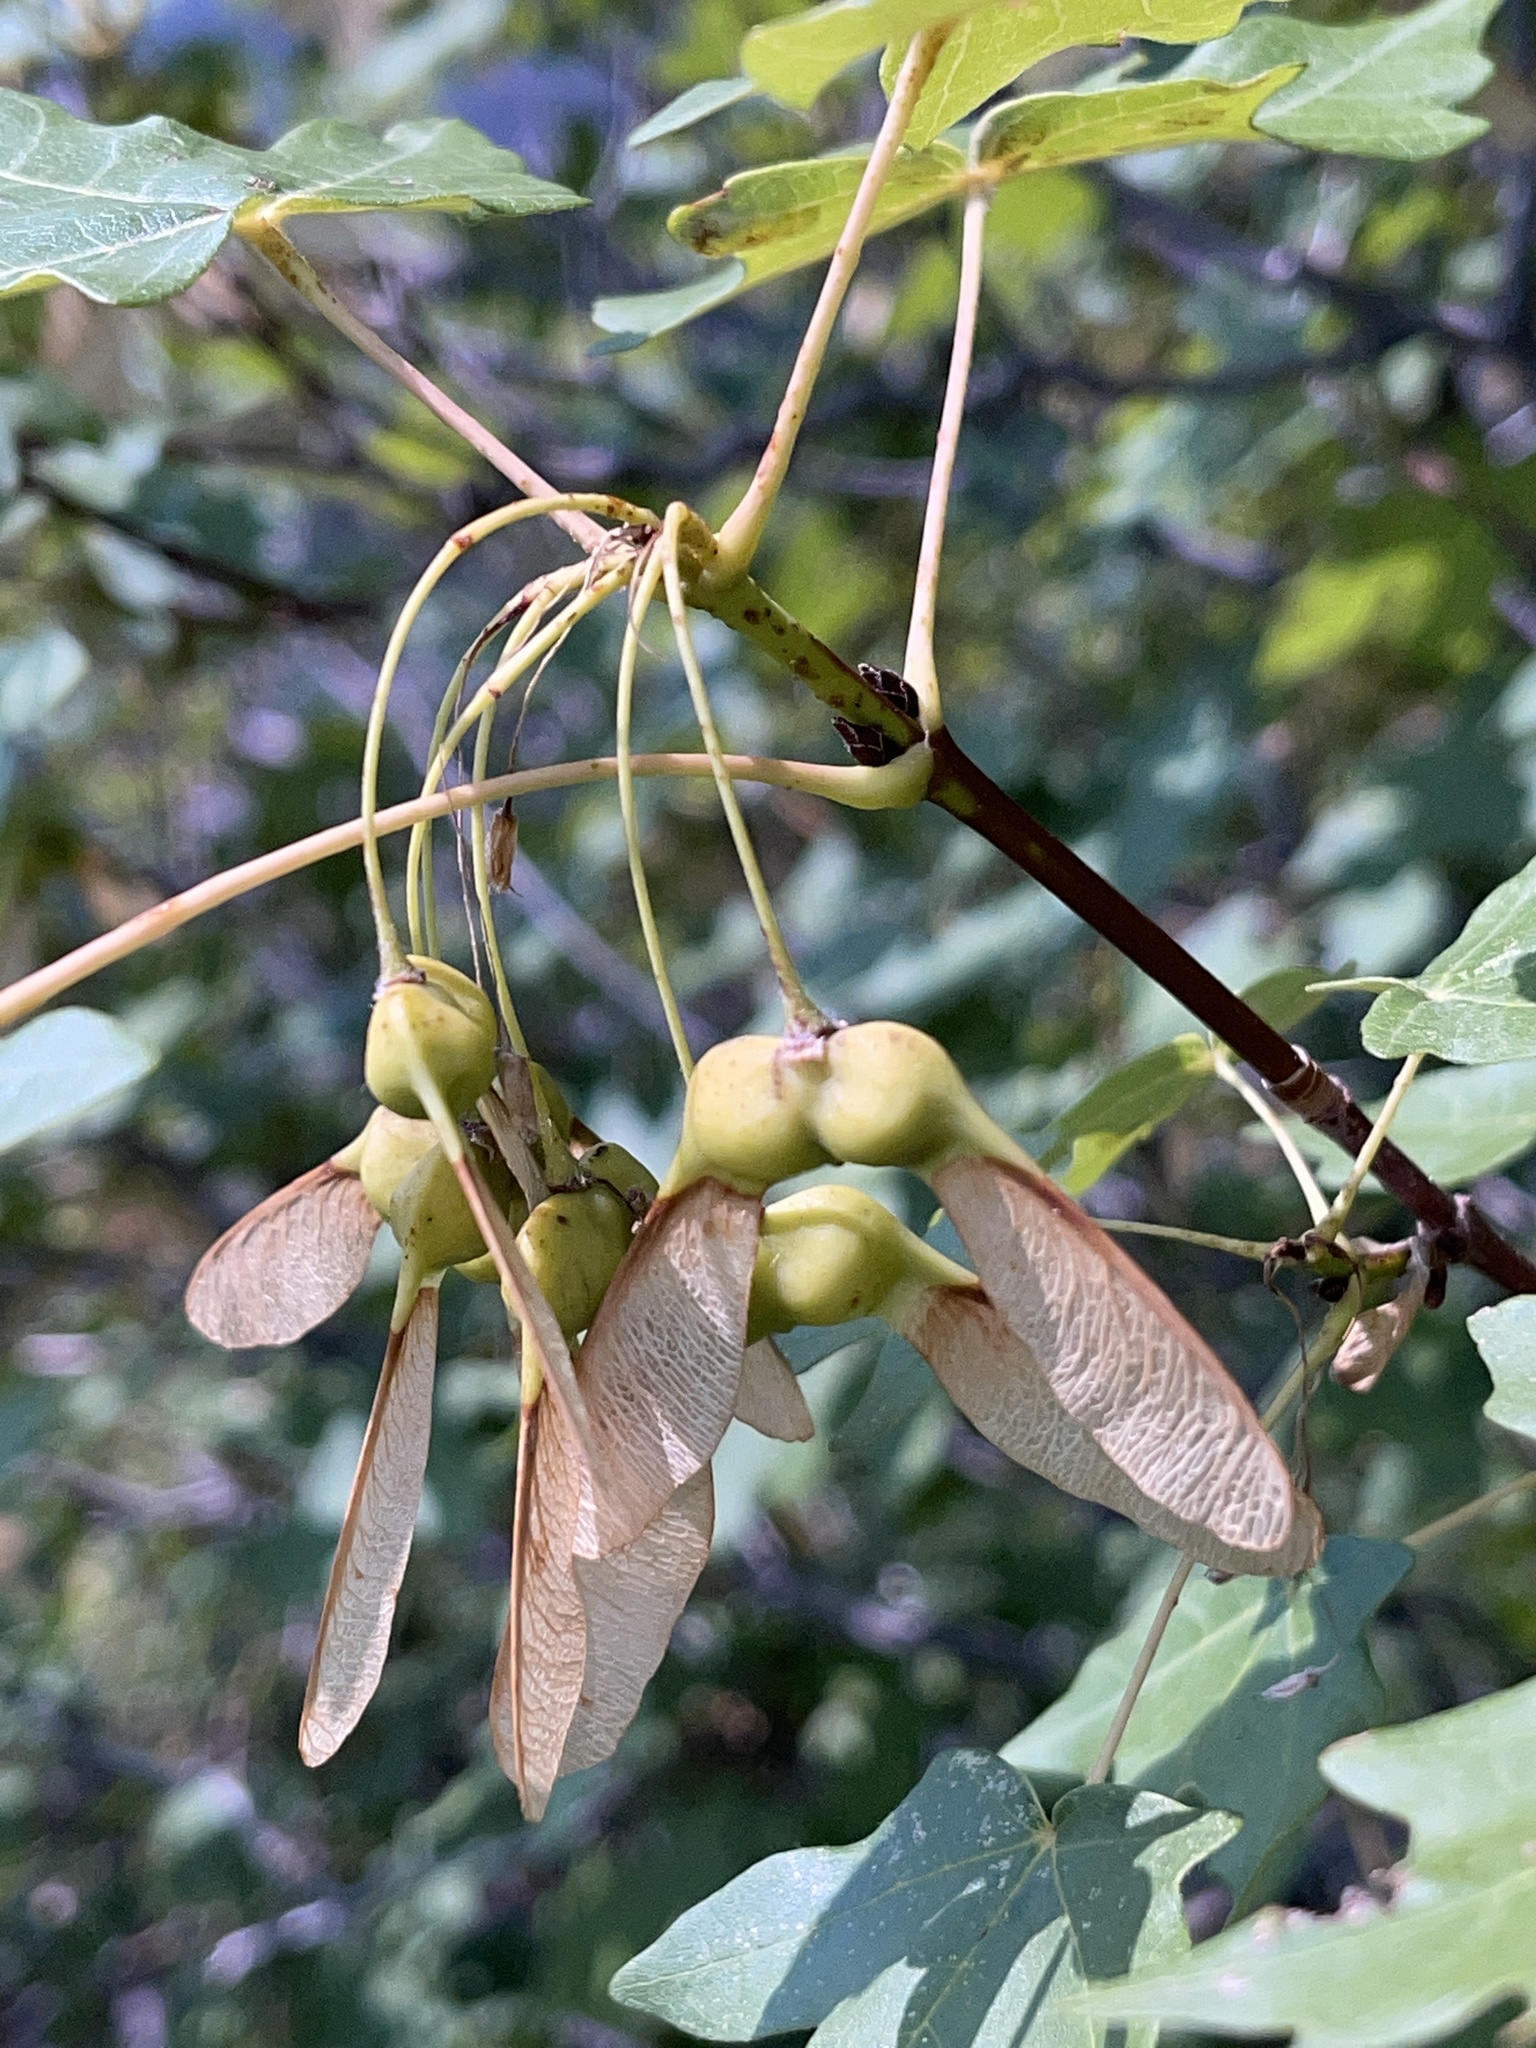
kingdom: Plantae
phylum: Tracheophyta
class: Magnoliopsida
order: Sapindales
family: Sapindaceae
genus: Acer
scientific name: Acer grandidentatum
